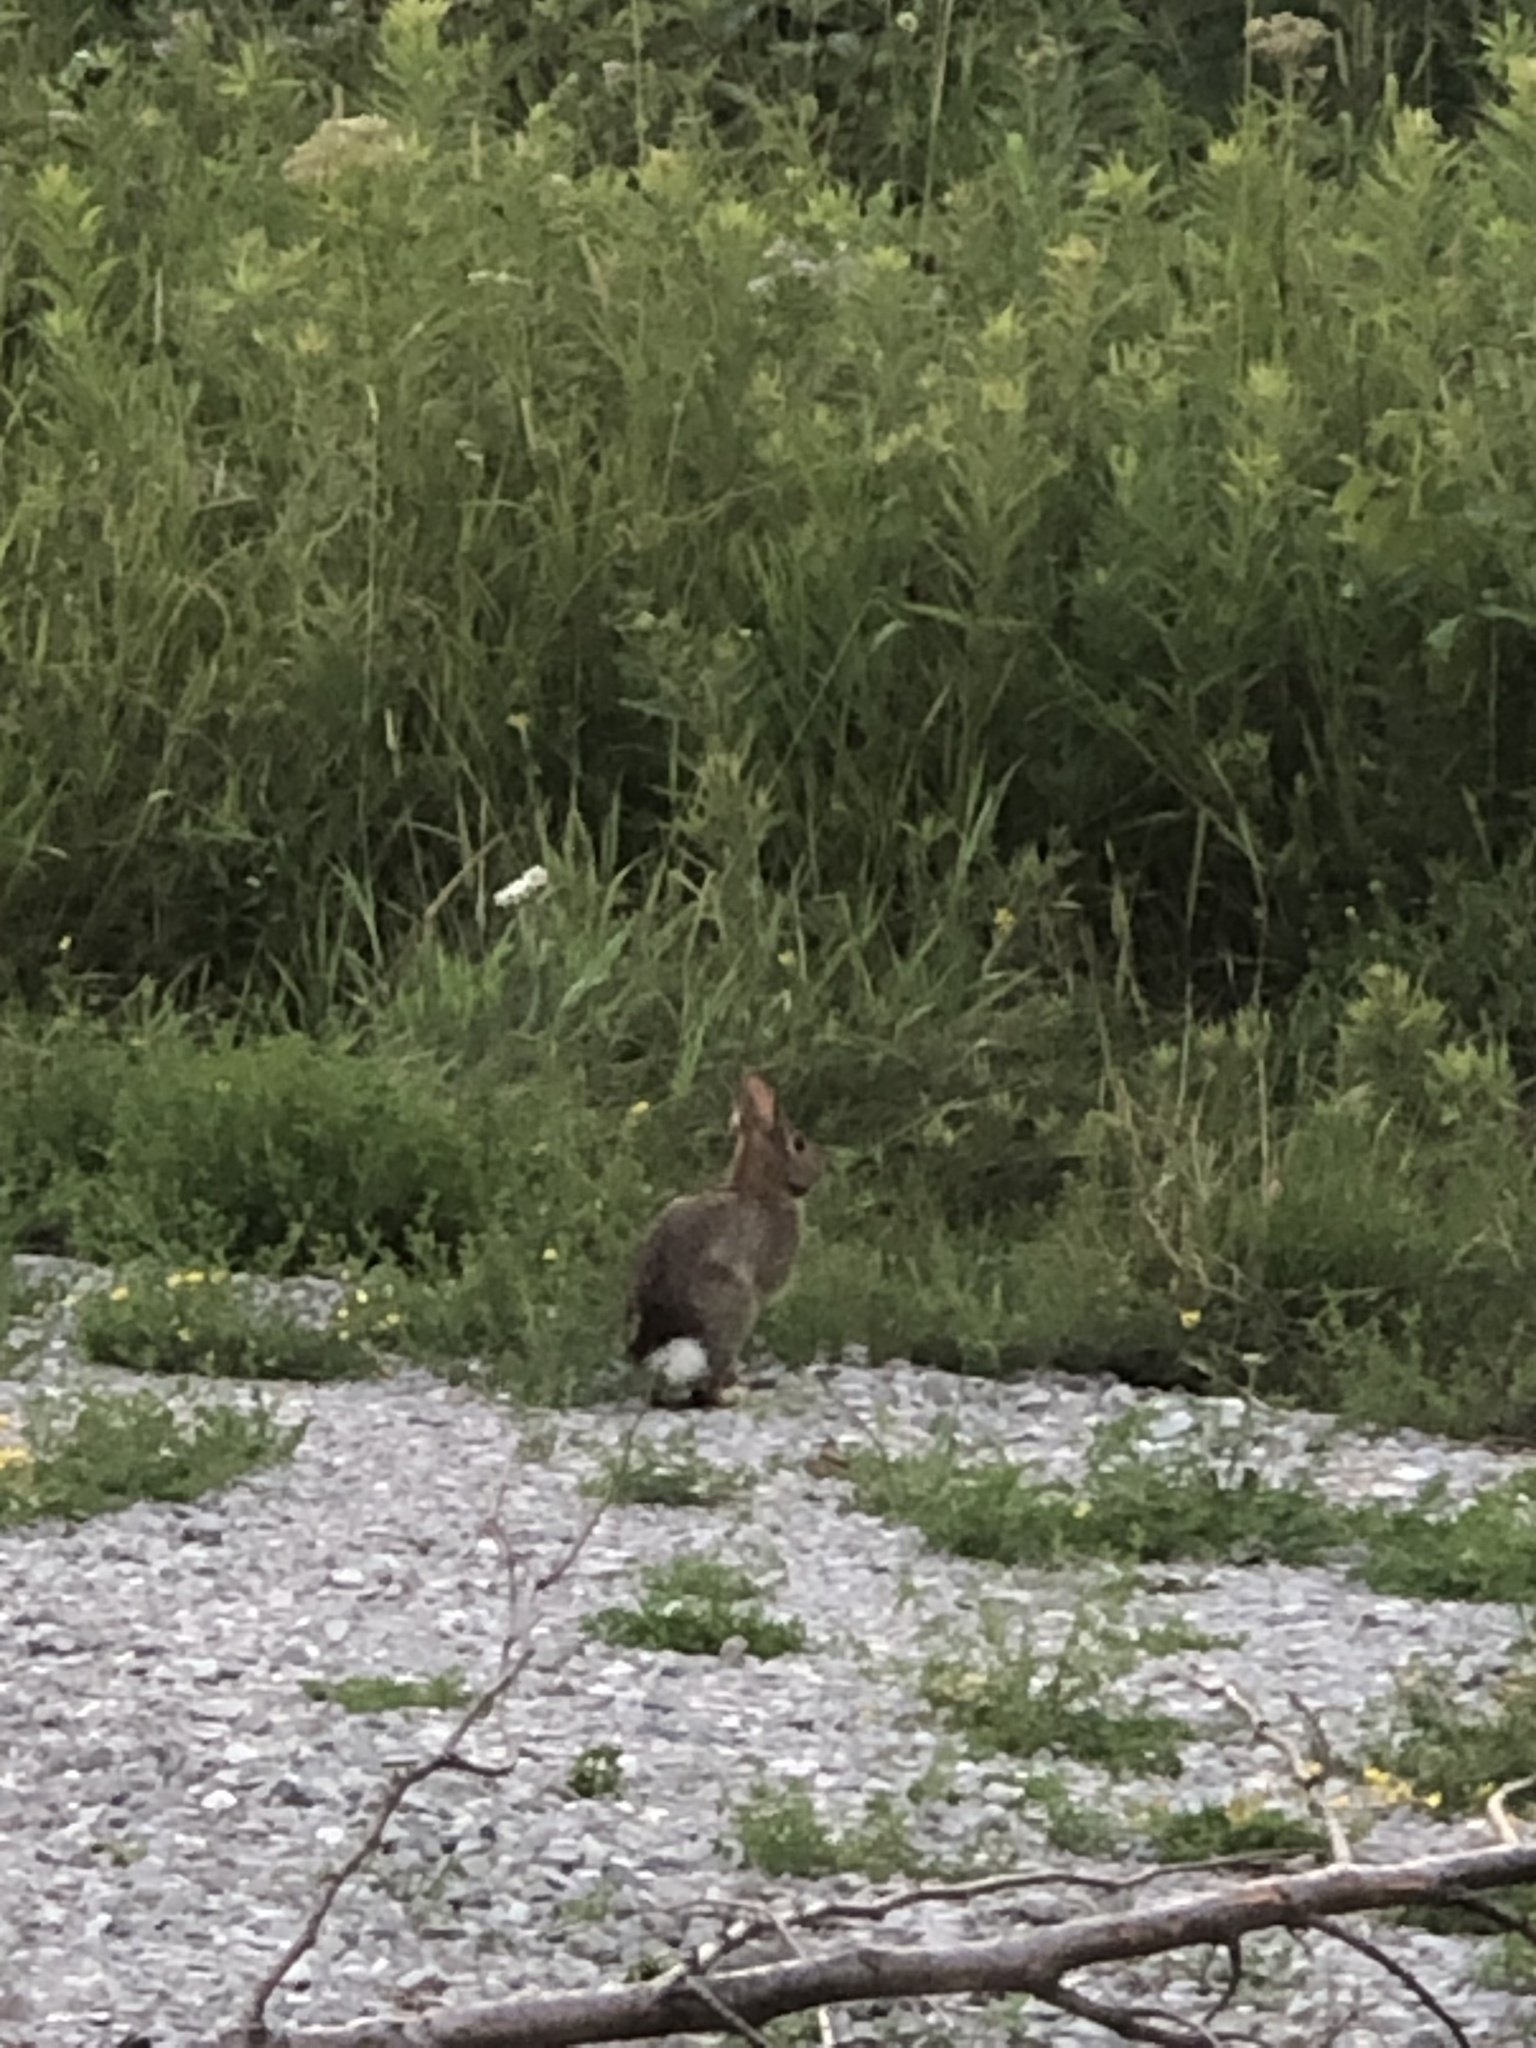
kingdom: Animalia
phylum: Chordata
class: Mammalia
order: Lagomorpha
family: Leporidae
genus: Sylvilagus
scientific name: Sylvilagus floridanus
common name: Eastern cottontail
